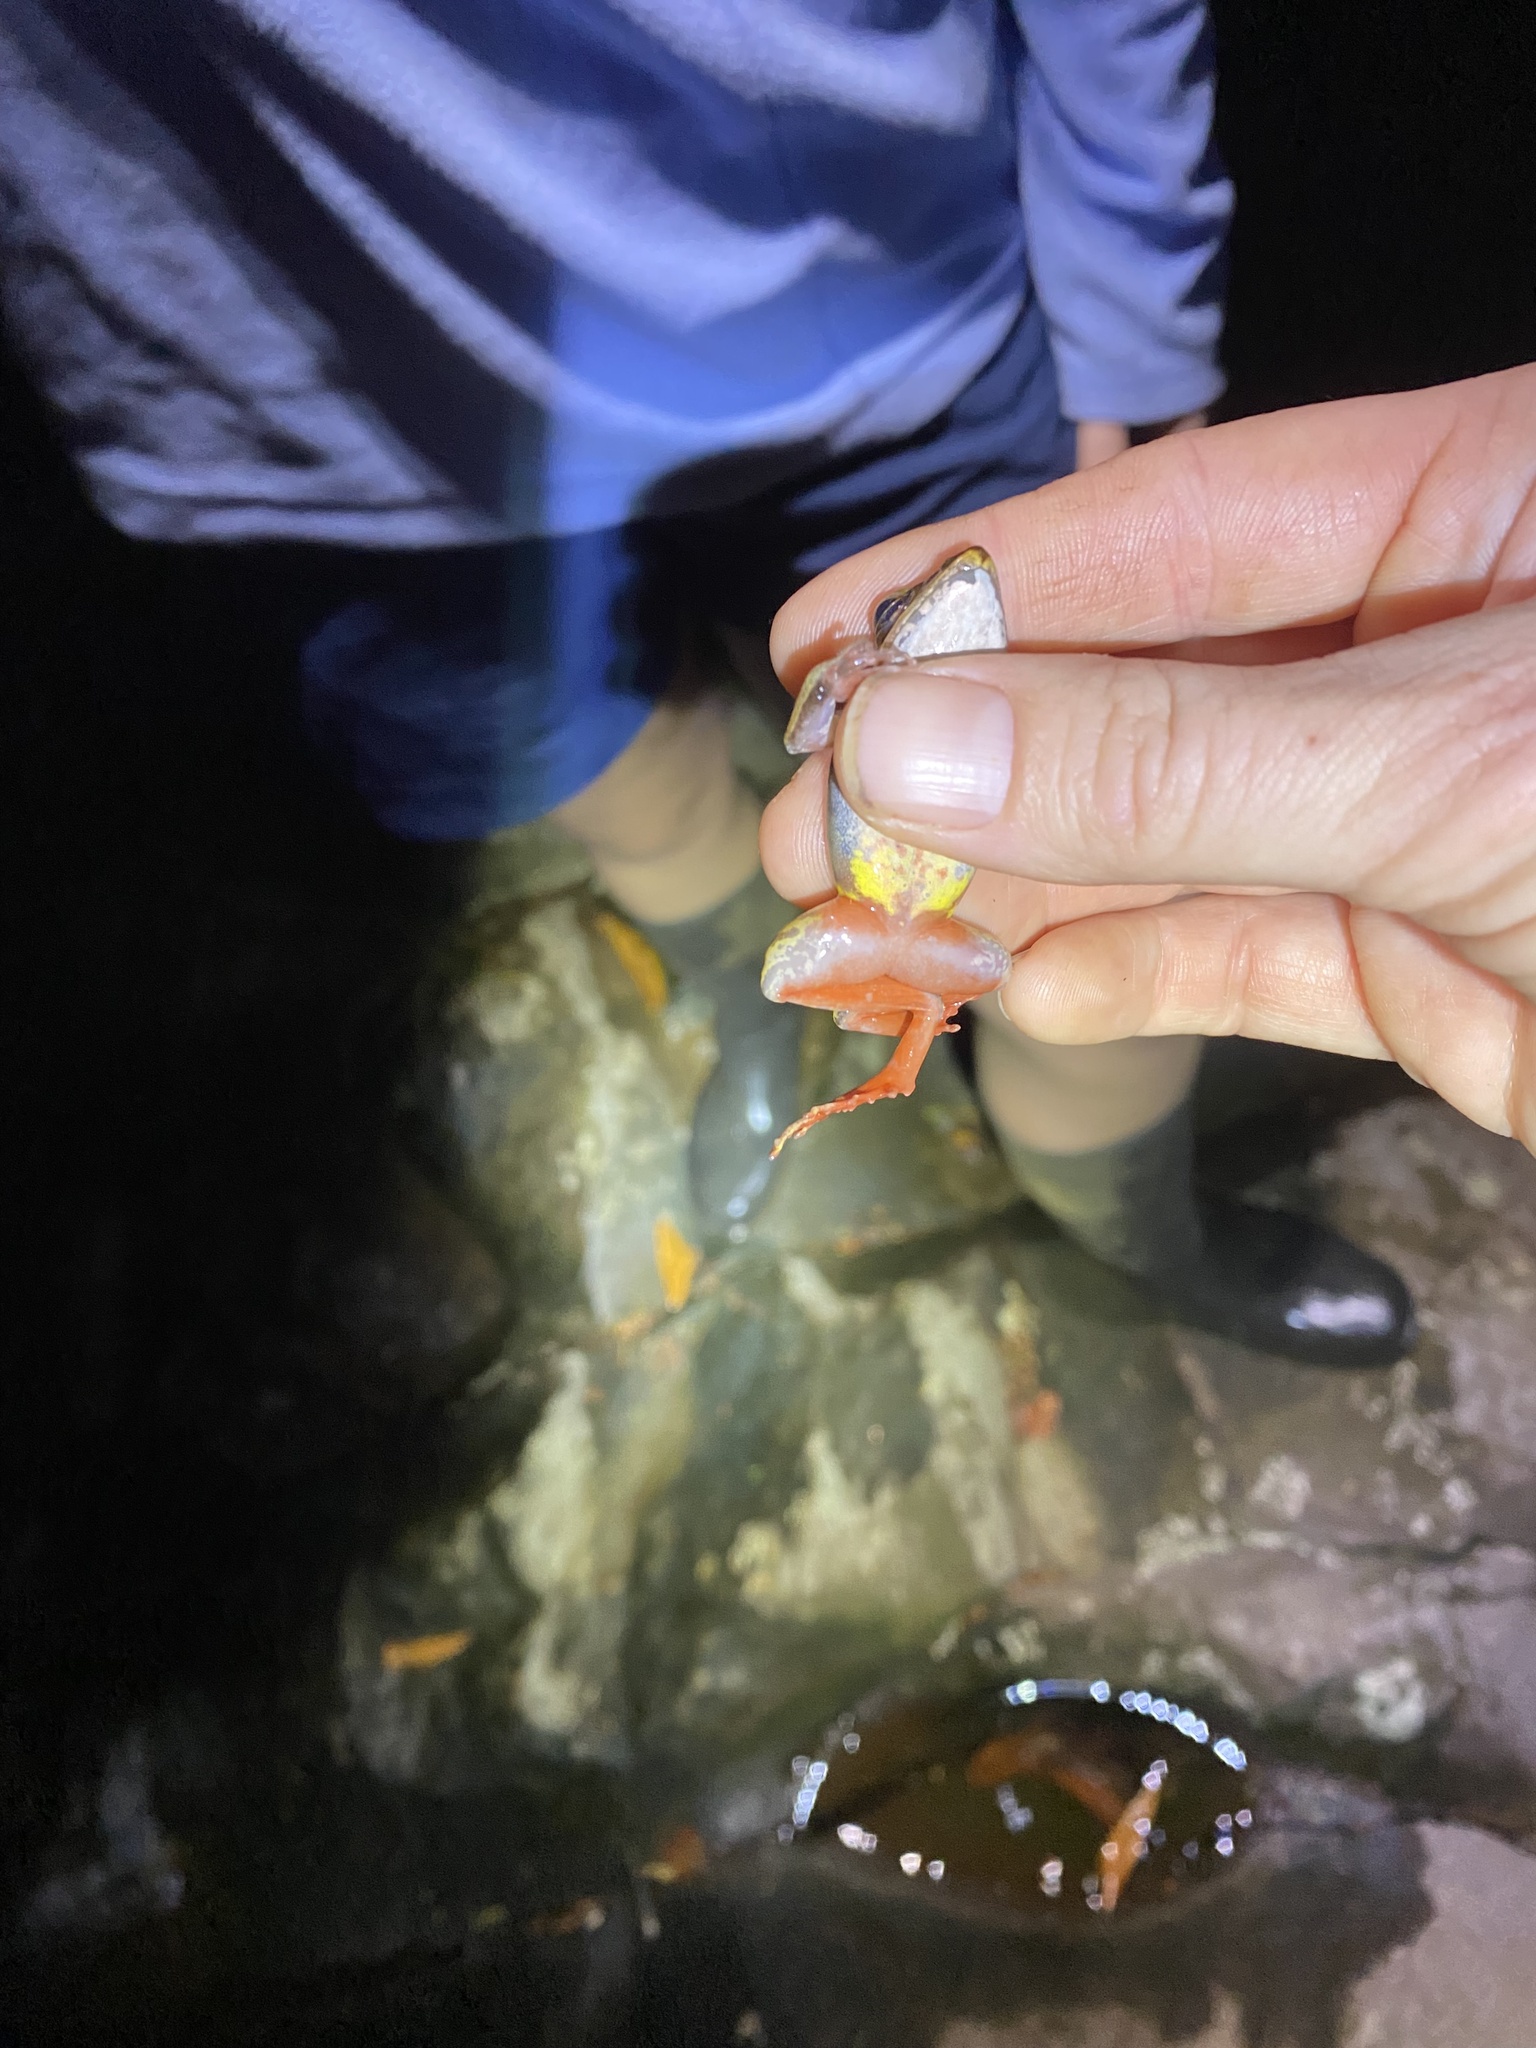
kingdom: Animalia
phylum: Chordata
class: Amphibia
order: Anura
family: Ranidae
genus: Lithobates
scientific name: Lithobates warszewitschii
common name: Warszewitsch's frog
